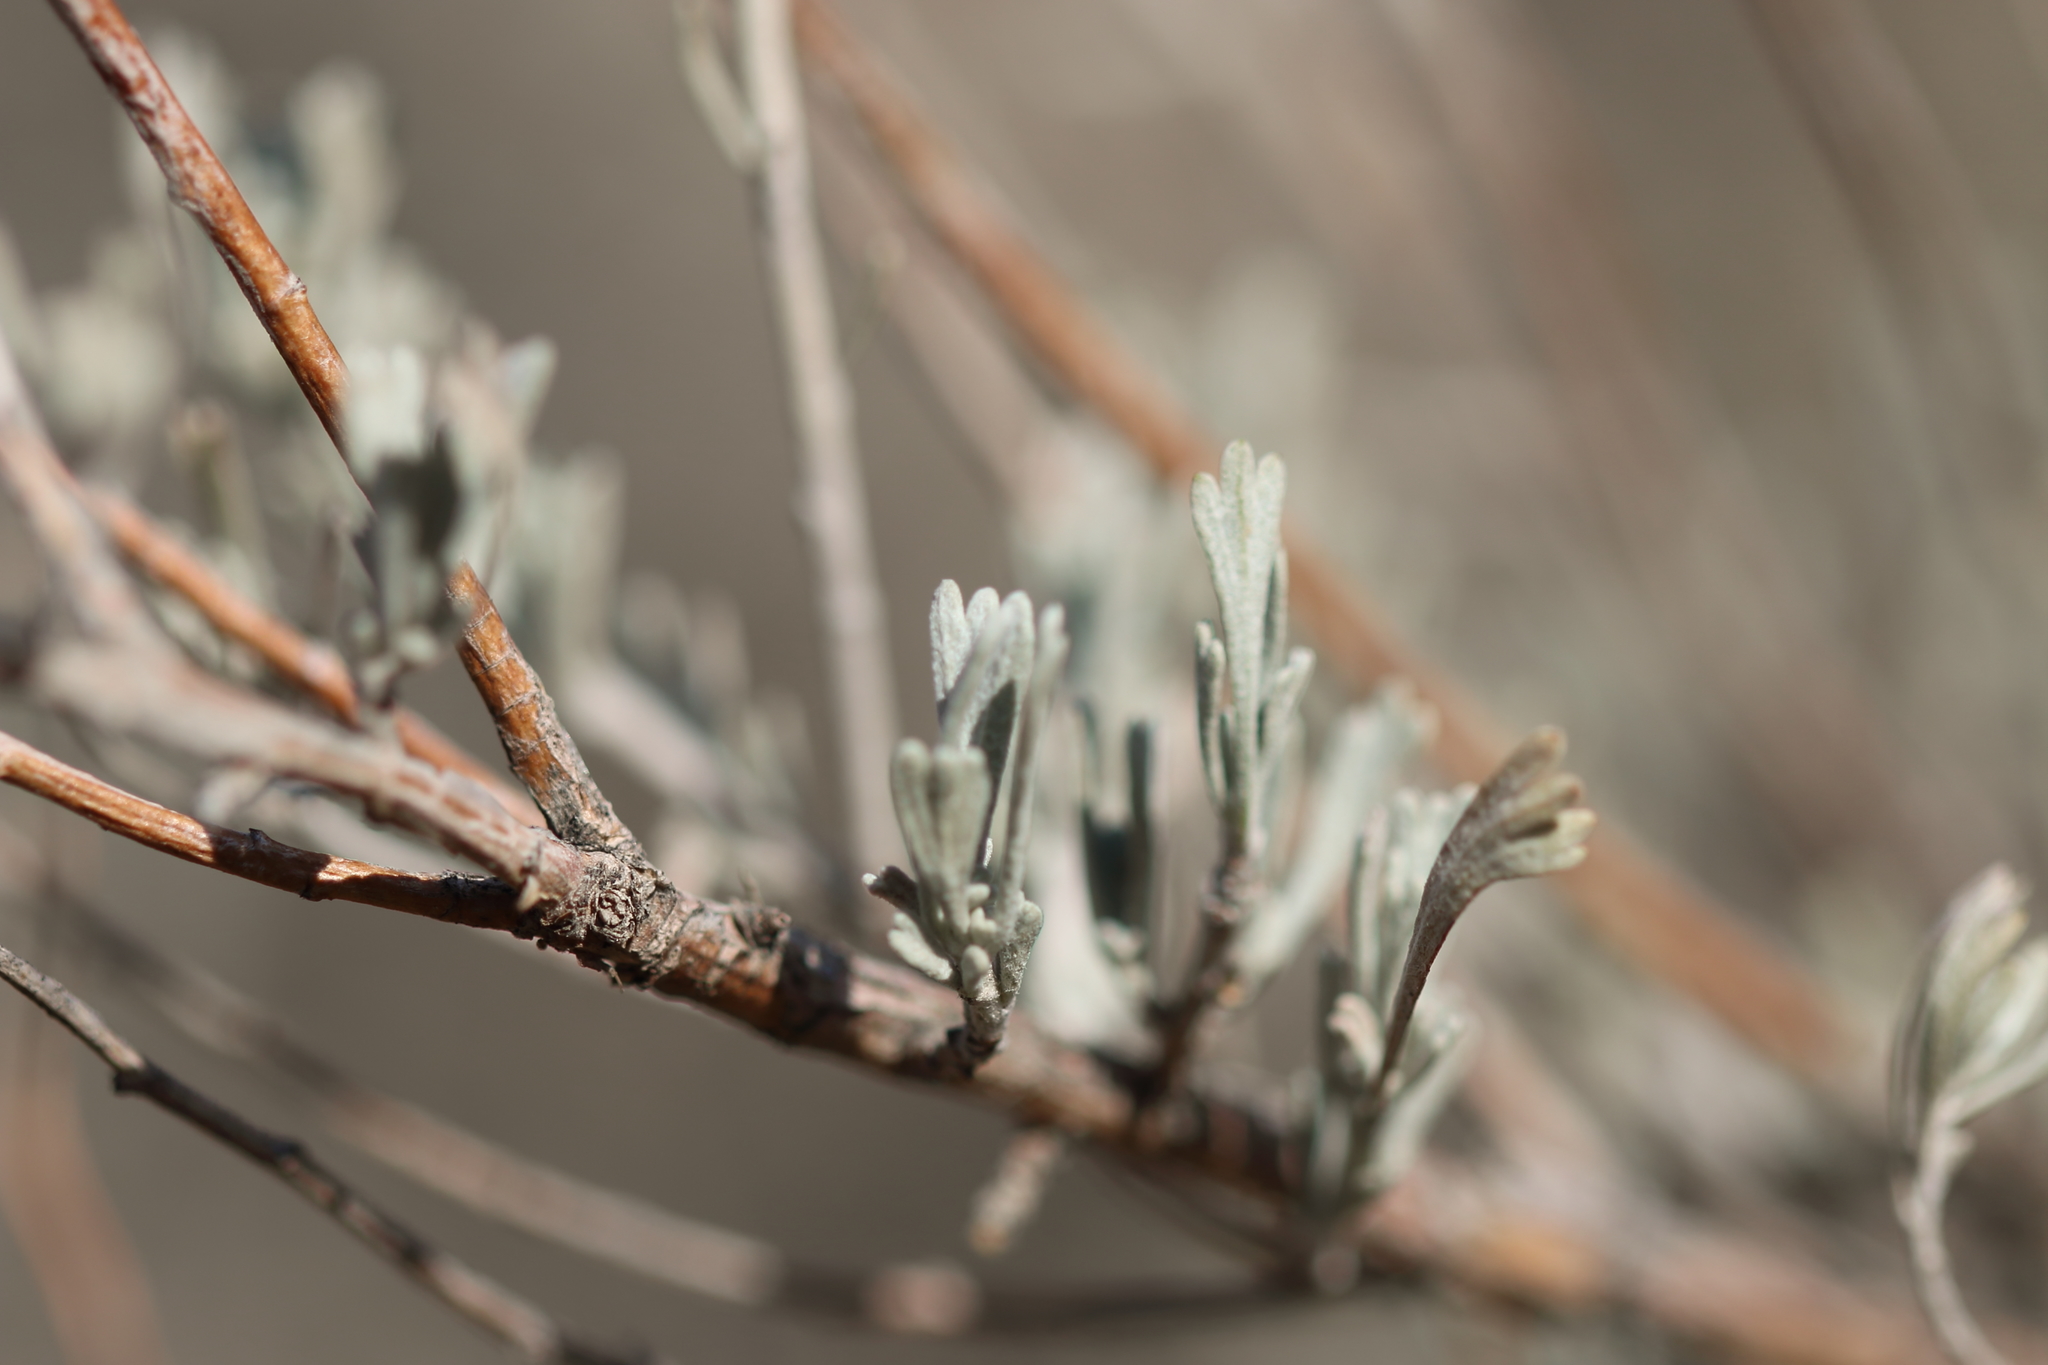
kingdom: Plantae
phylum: Tracheophyta
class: Magnoliopsida
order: Asterales
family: Asteraceae
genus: Artemisia
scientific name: Artemisia tridentata
